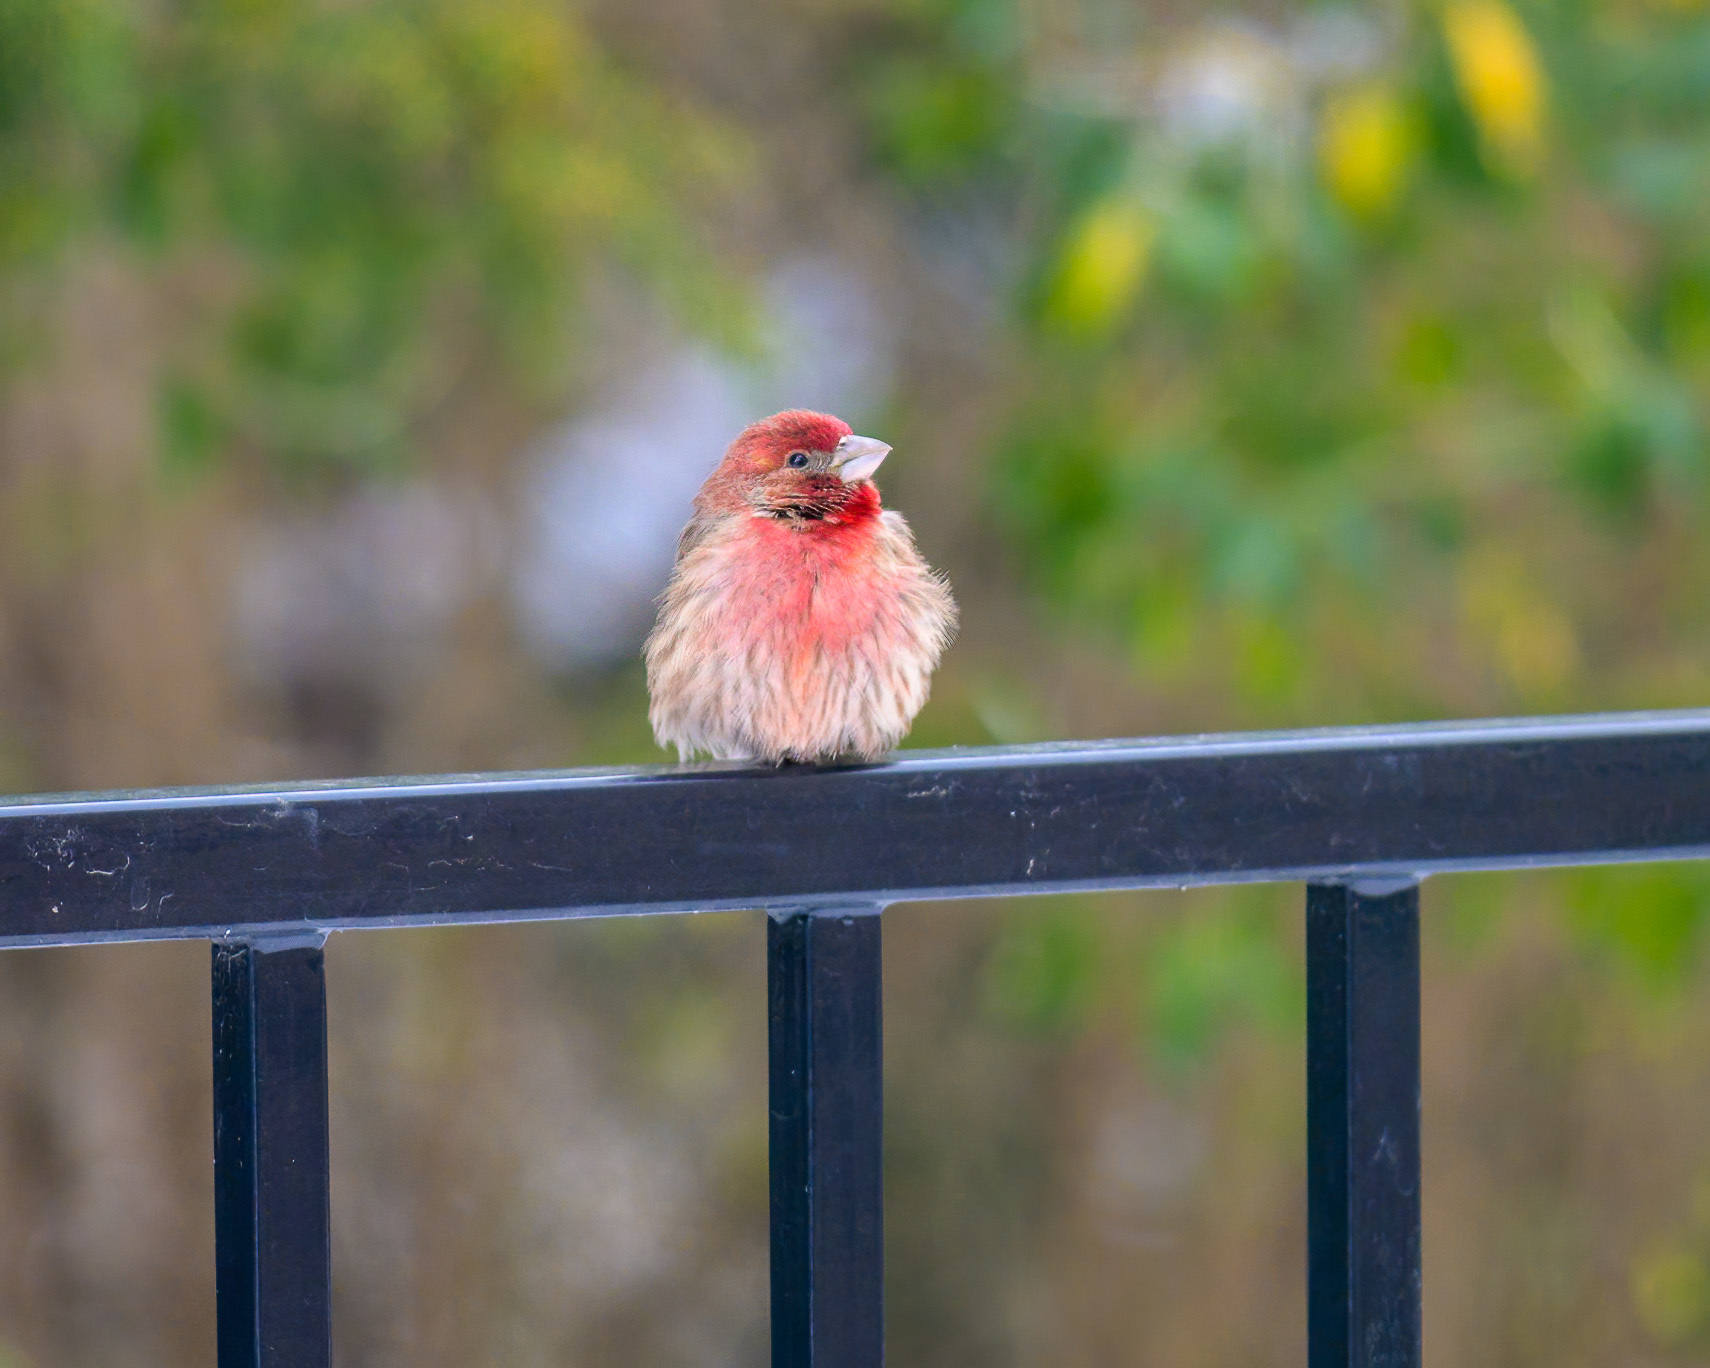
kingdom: Animalia
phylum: Chordata
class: Aves
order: Passeriformes
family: Fringillidae
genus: Haemorhous
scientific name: Haemorhous mexicanus
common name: House finch
